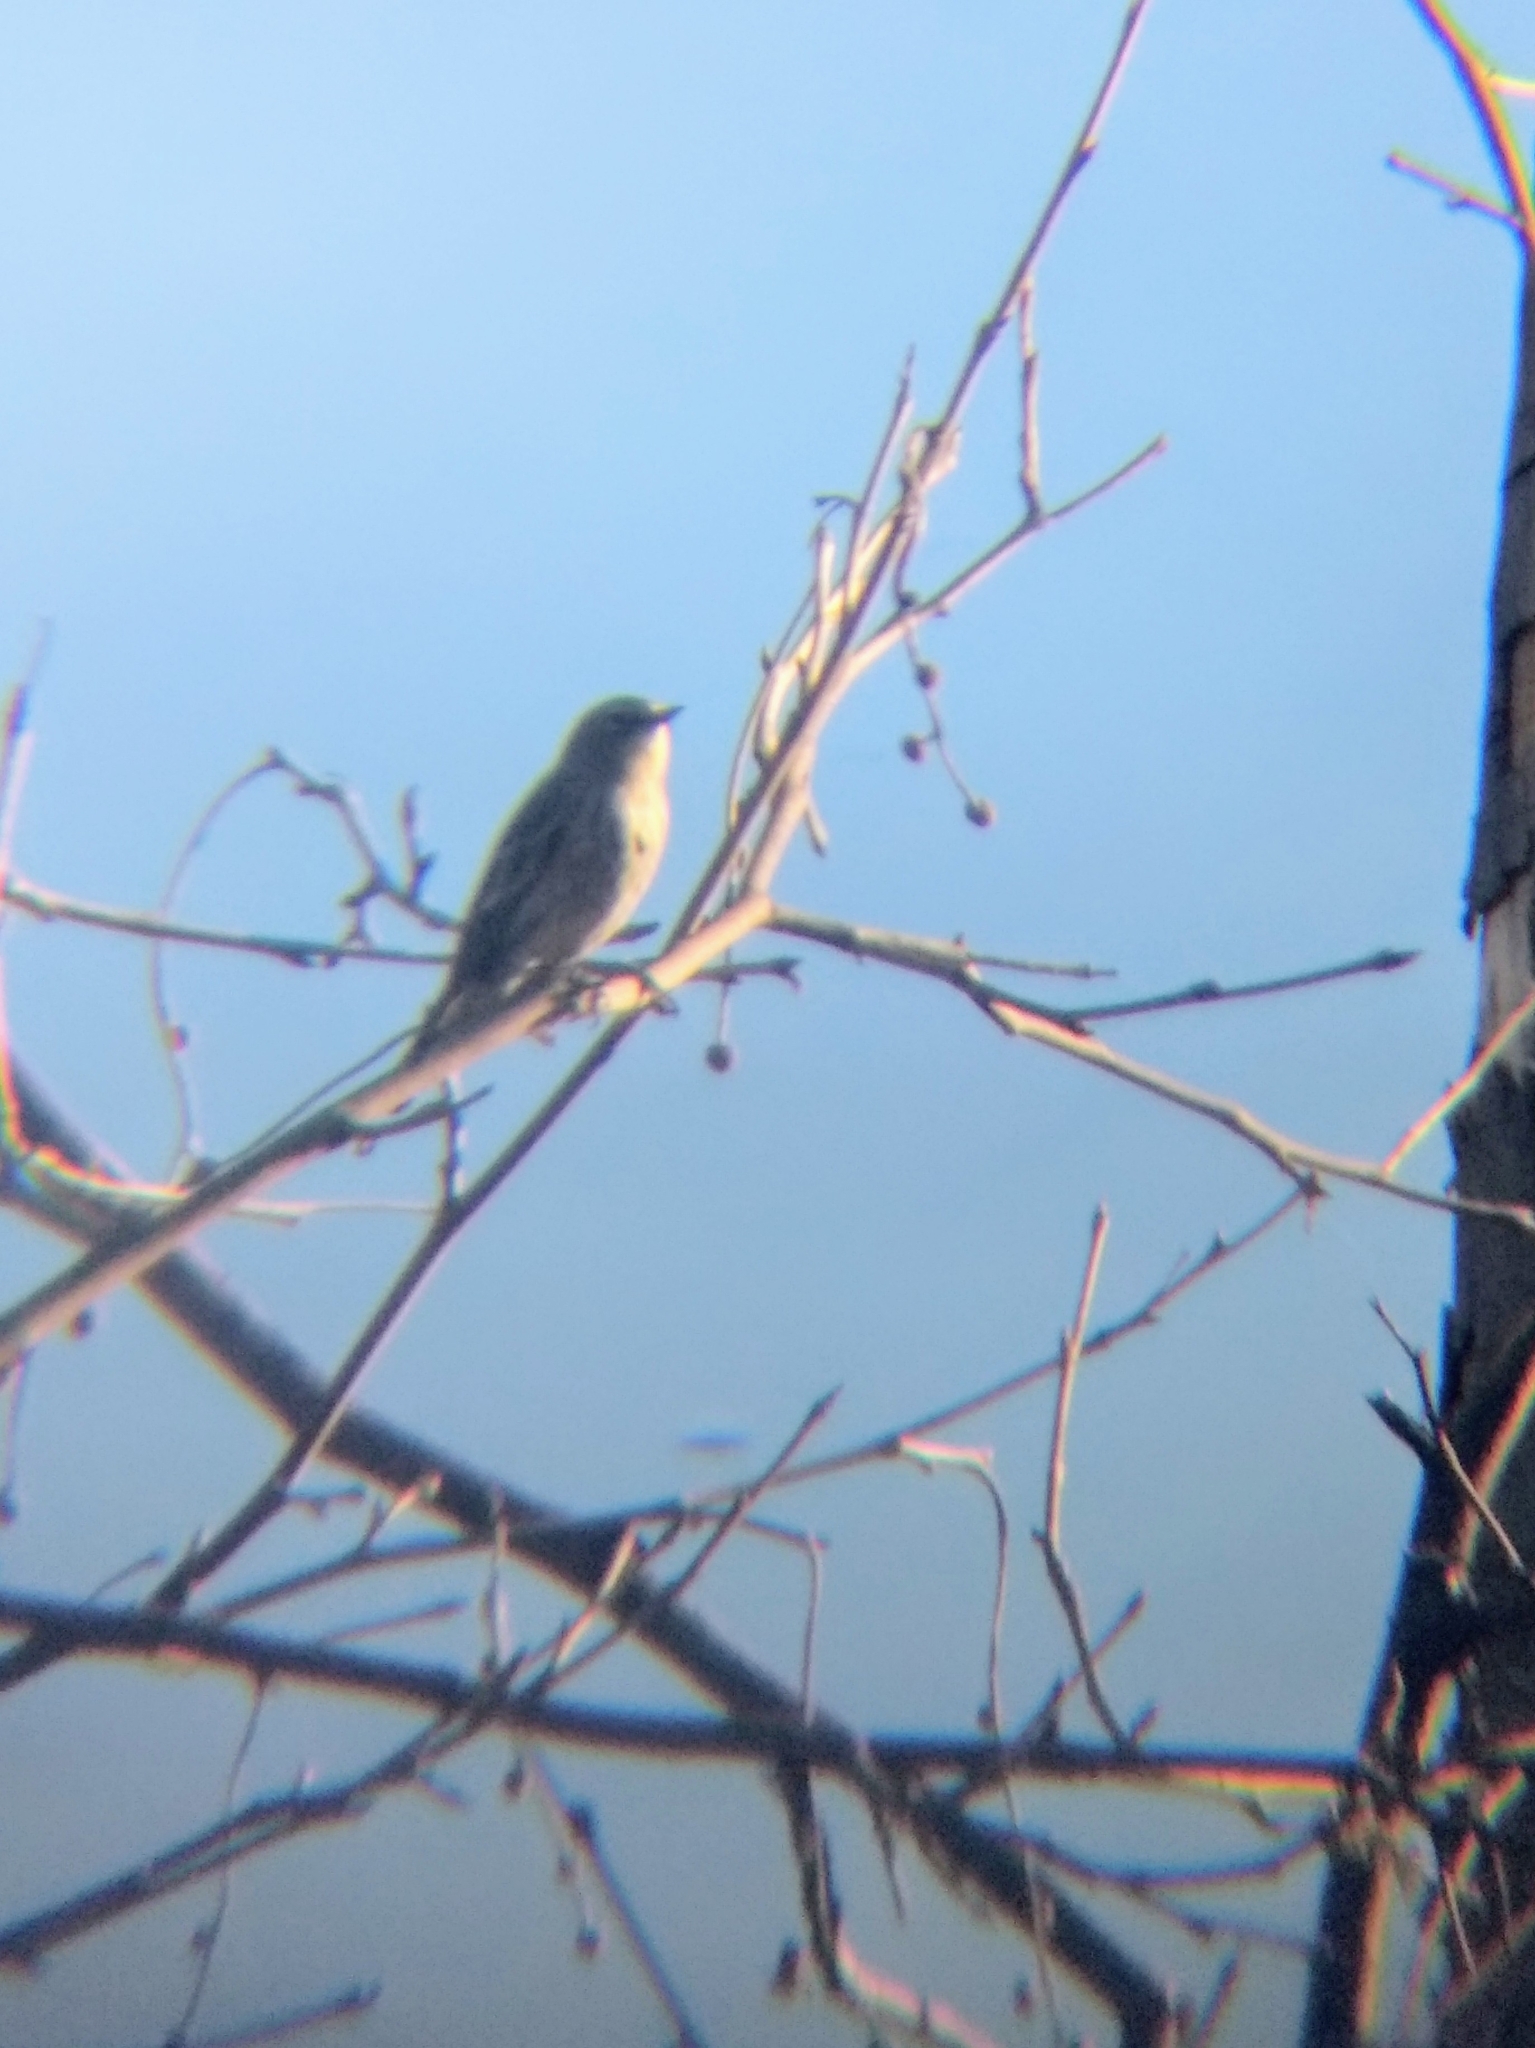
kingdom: Animalia
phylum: Chordata
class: Aves
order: Passeriformes
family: Parulidae
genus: Setophaga
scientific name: Setophaga coronata
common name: Myrtle warbler
